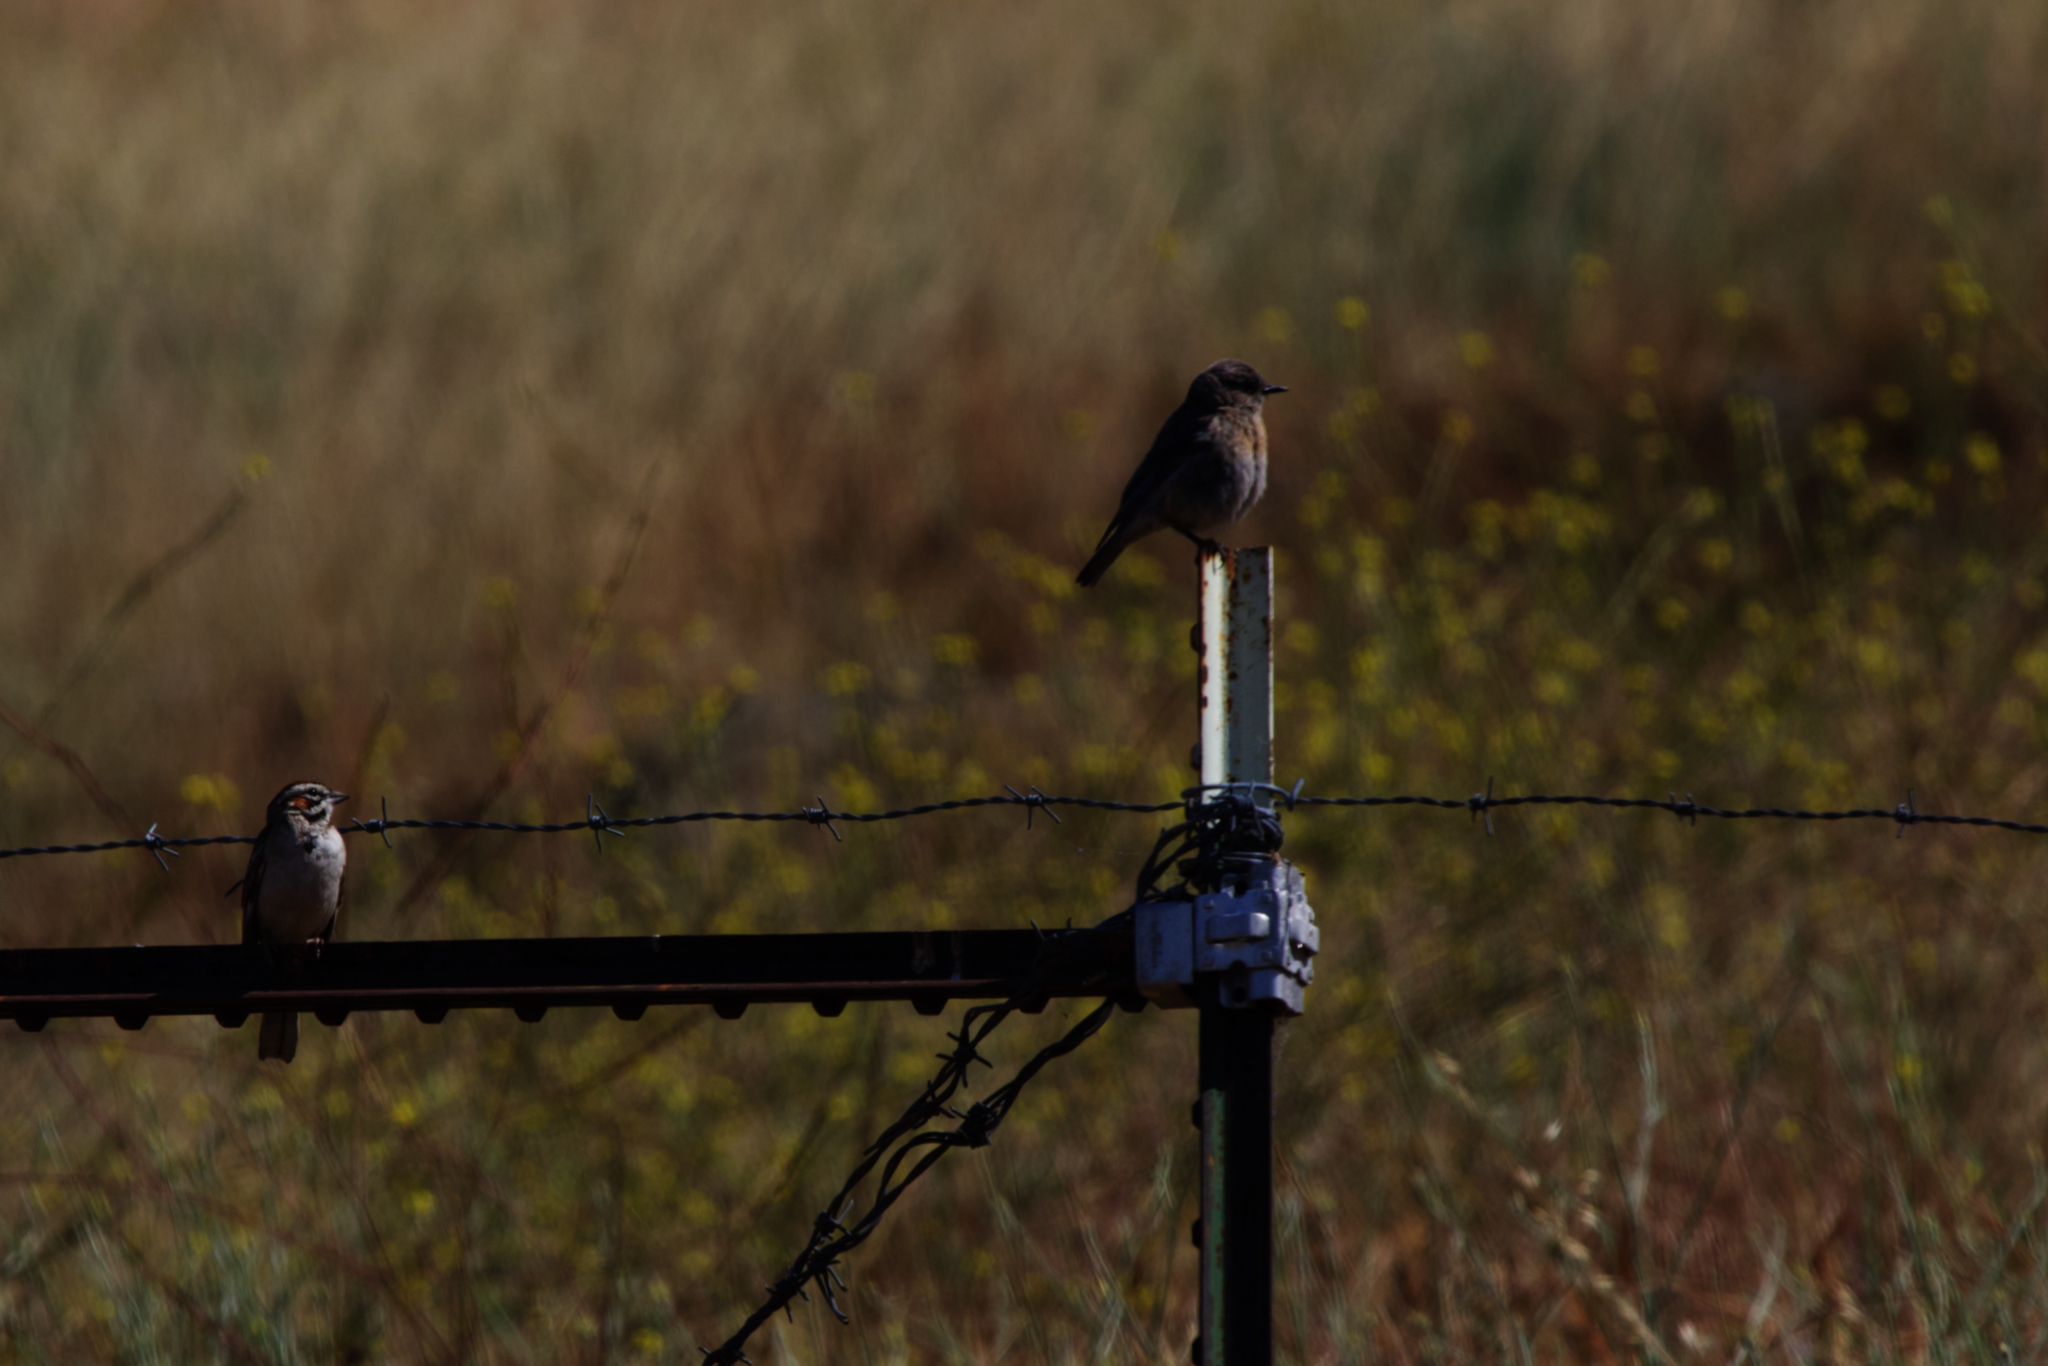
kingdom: Animalia
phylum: Chordata
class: Aves
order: Passeriformes
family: Turdidae
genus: Sialia
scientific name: Sialia mexicana
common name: Western bluebird
